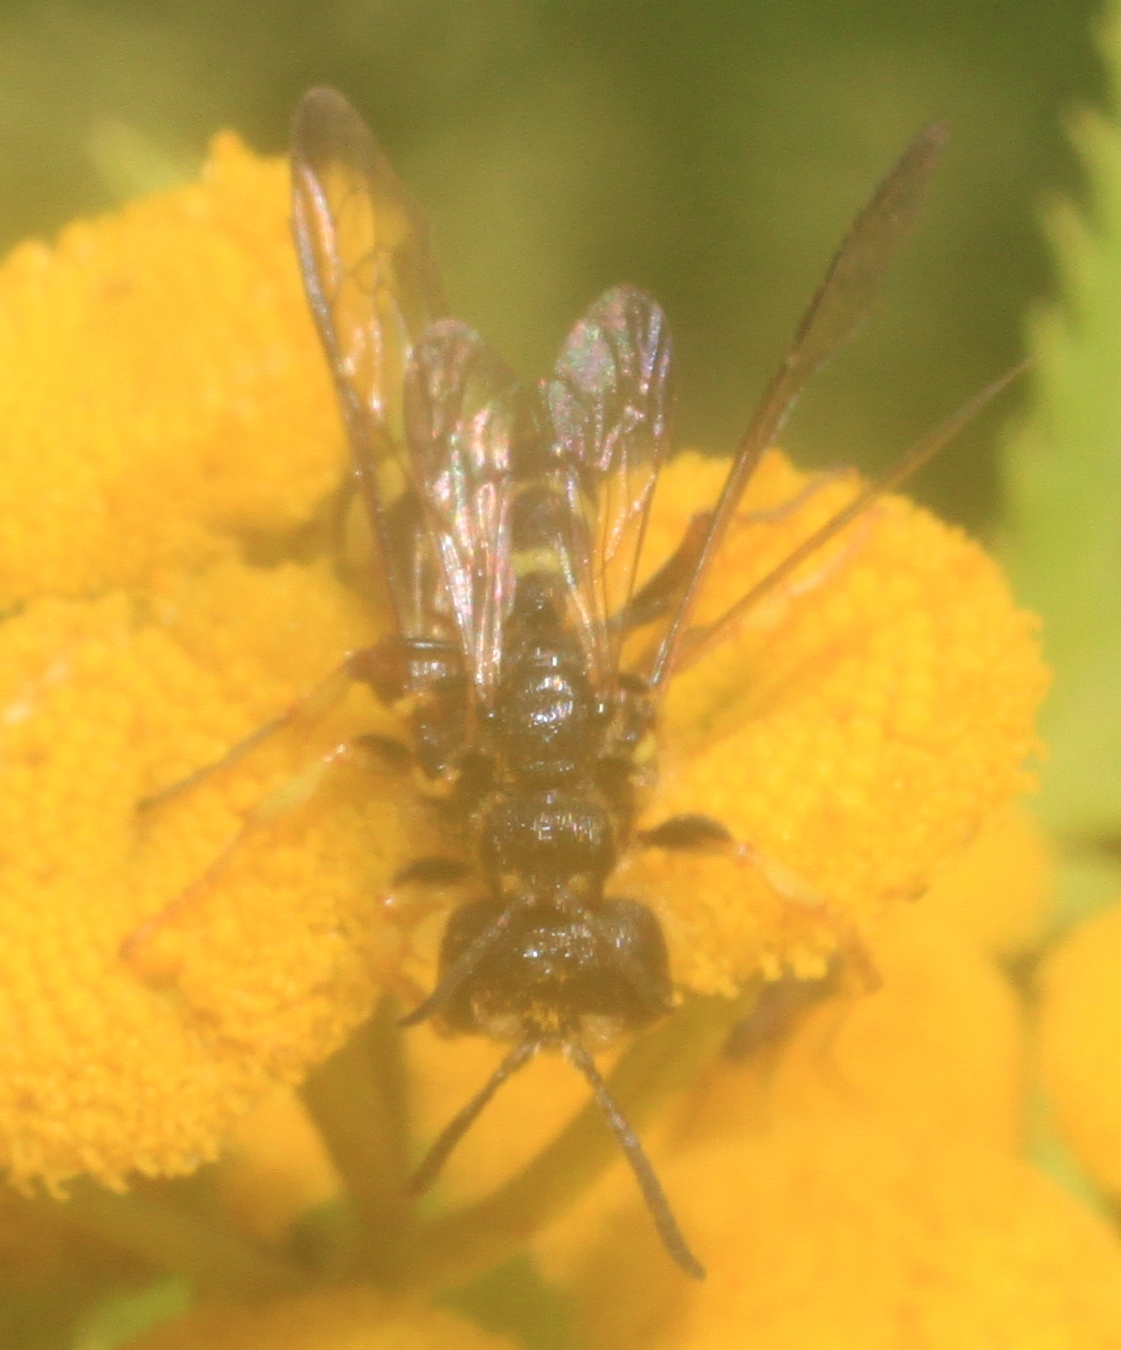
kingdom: Animalia
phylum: Arthropoda
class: Insecta
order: Hymenoptera
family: Crabronidae
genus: Cerceris
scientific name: Cerceris rybyensis
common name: Ornate tailed digger wasp
